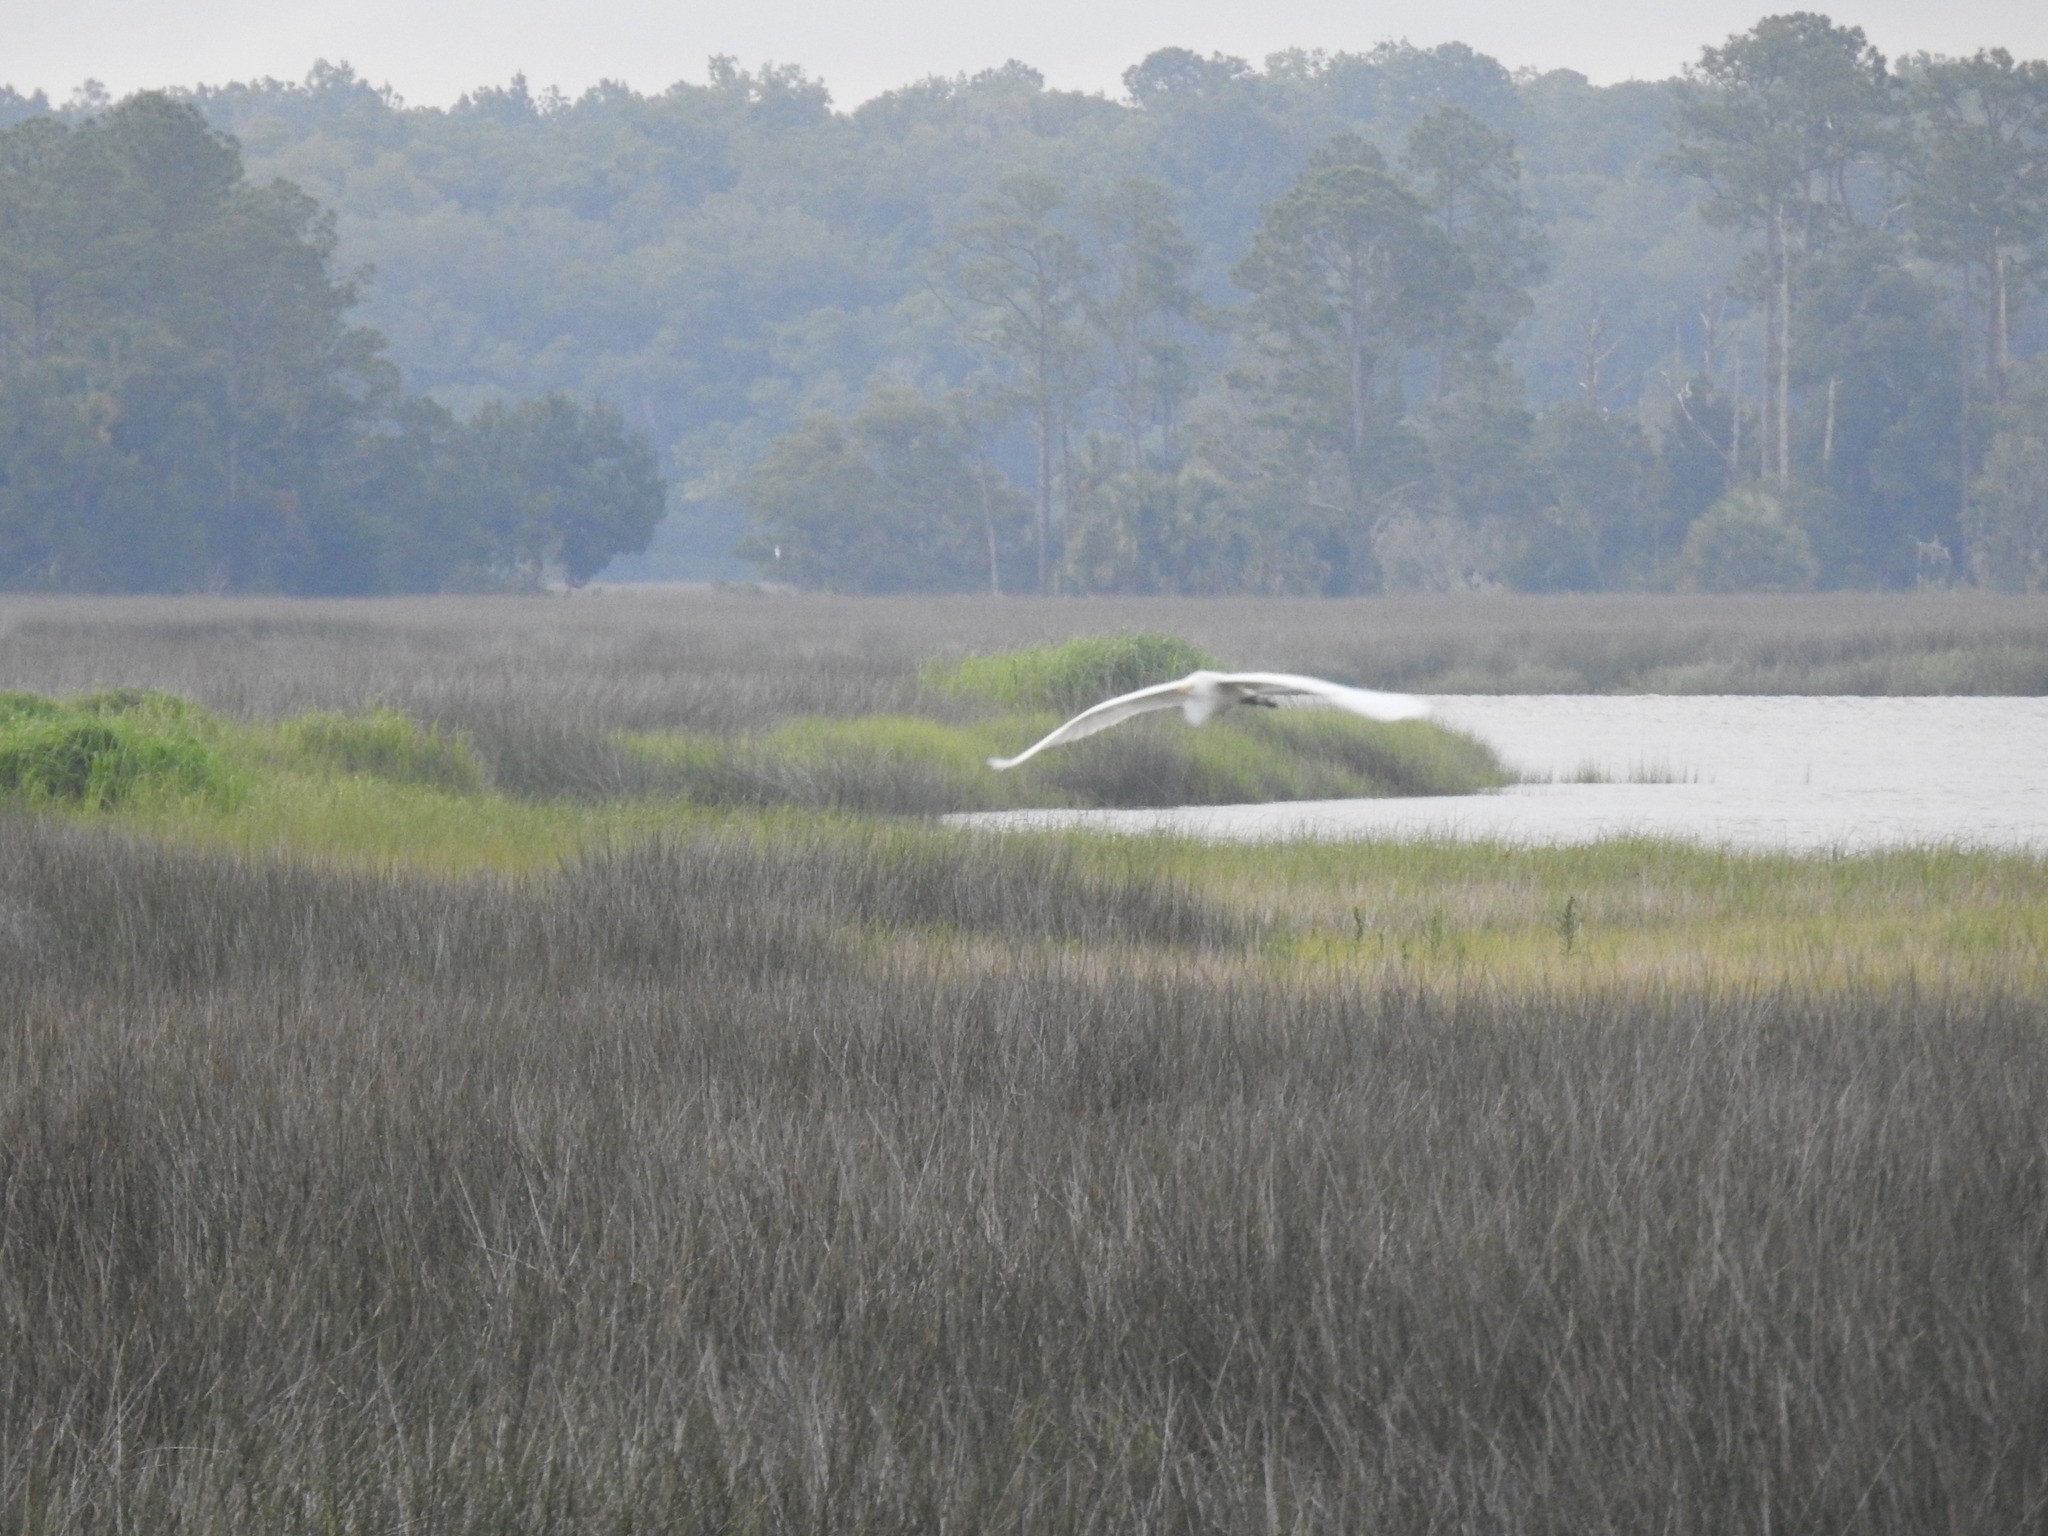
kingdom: Animalia
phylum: Chordata
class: Aves
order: Pelecaniformes
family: Ardeidae
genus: Ardea
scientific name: Ardea alba
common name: Great egret
